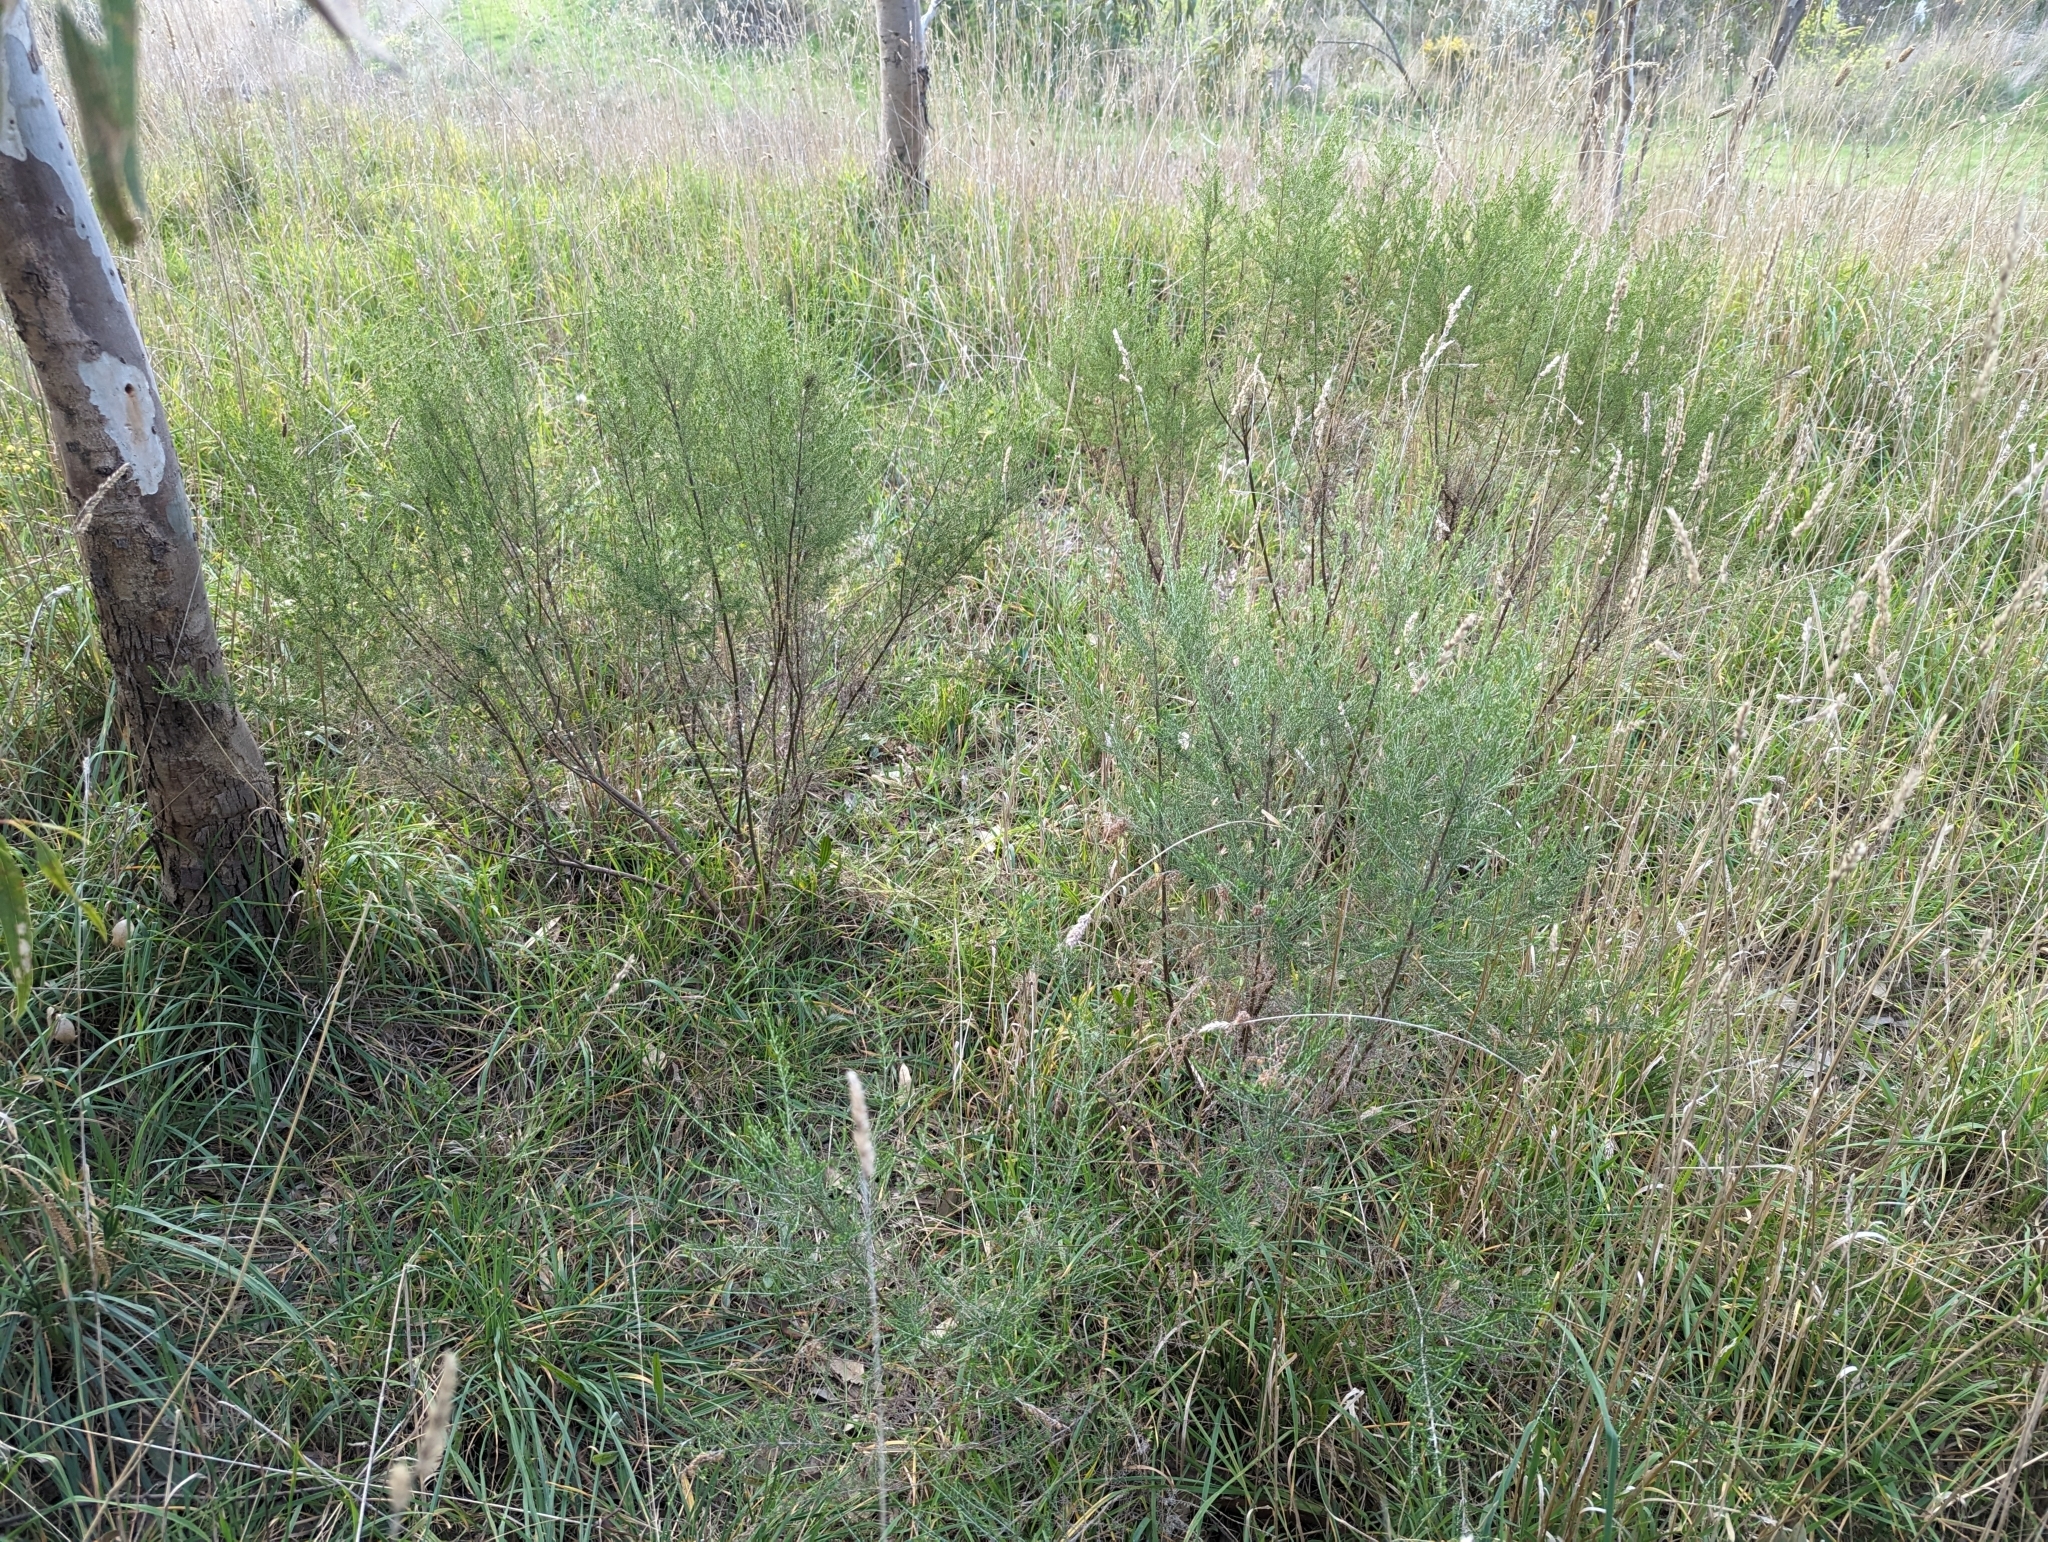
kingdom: Plantae
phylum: Tracheophyta
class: Magnoliopsida
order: Asterales
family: Asteraceae
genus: Cassinia
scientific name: Cassinia sifton
